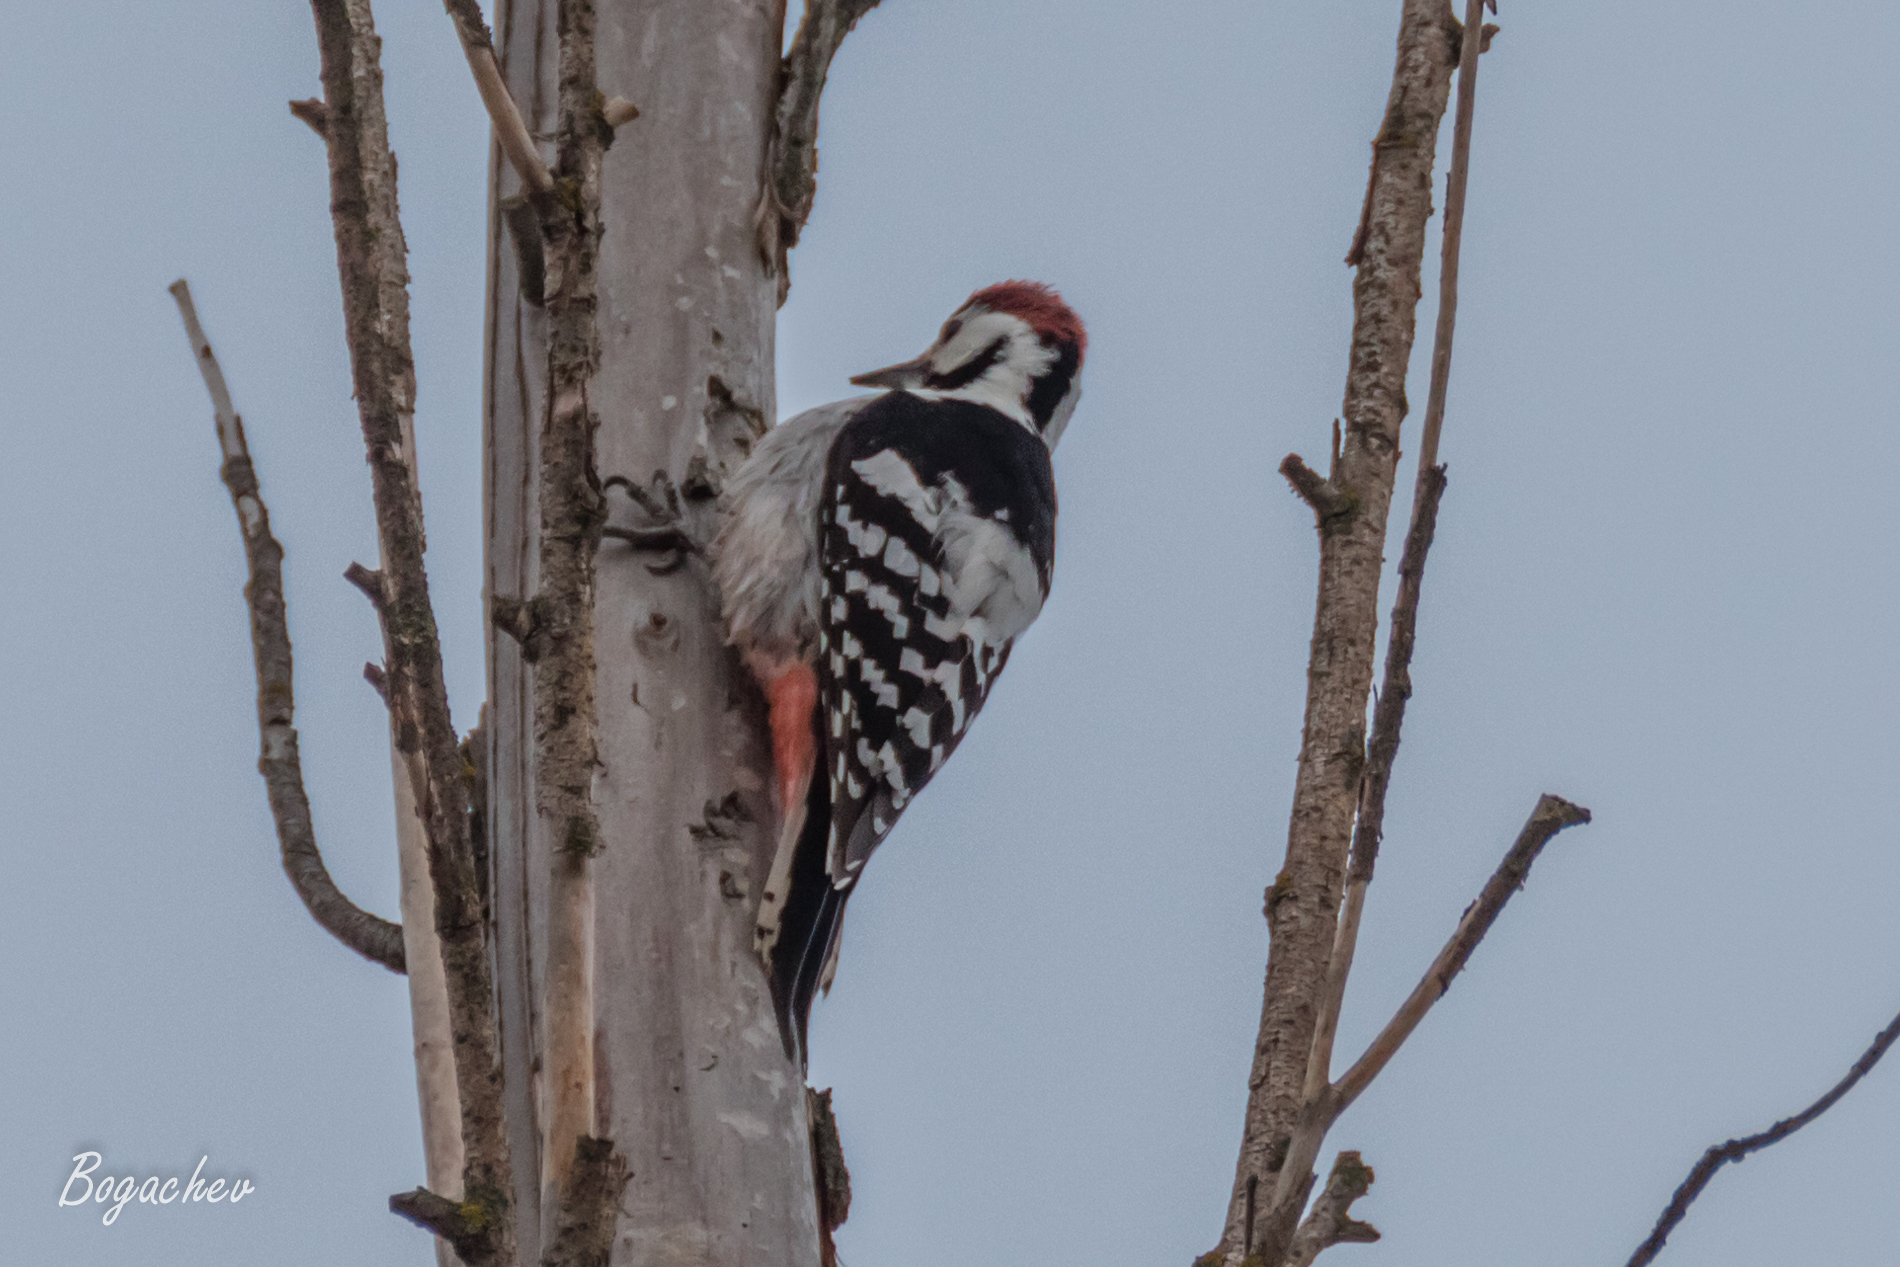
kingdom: Animalia
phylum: Chordata
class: Aves
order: Piciformes
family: Picidae
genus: Dendrocopos
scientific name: Dendrocopos leucotos
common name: White-backed woodpecker
